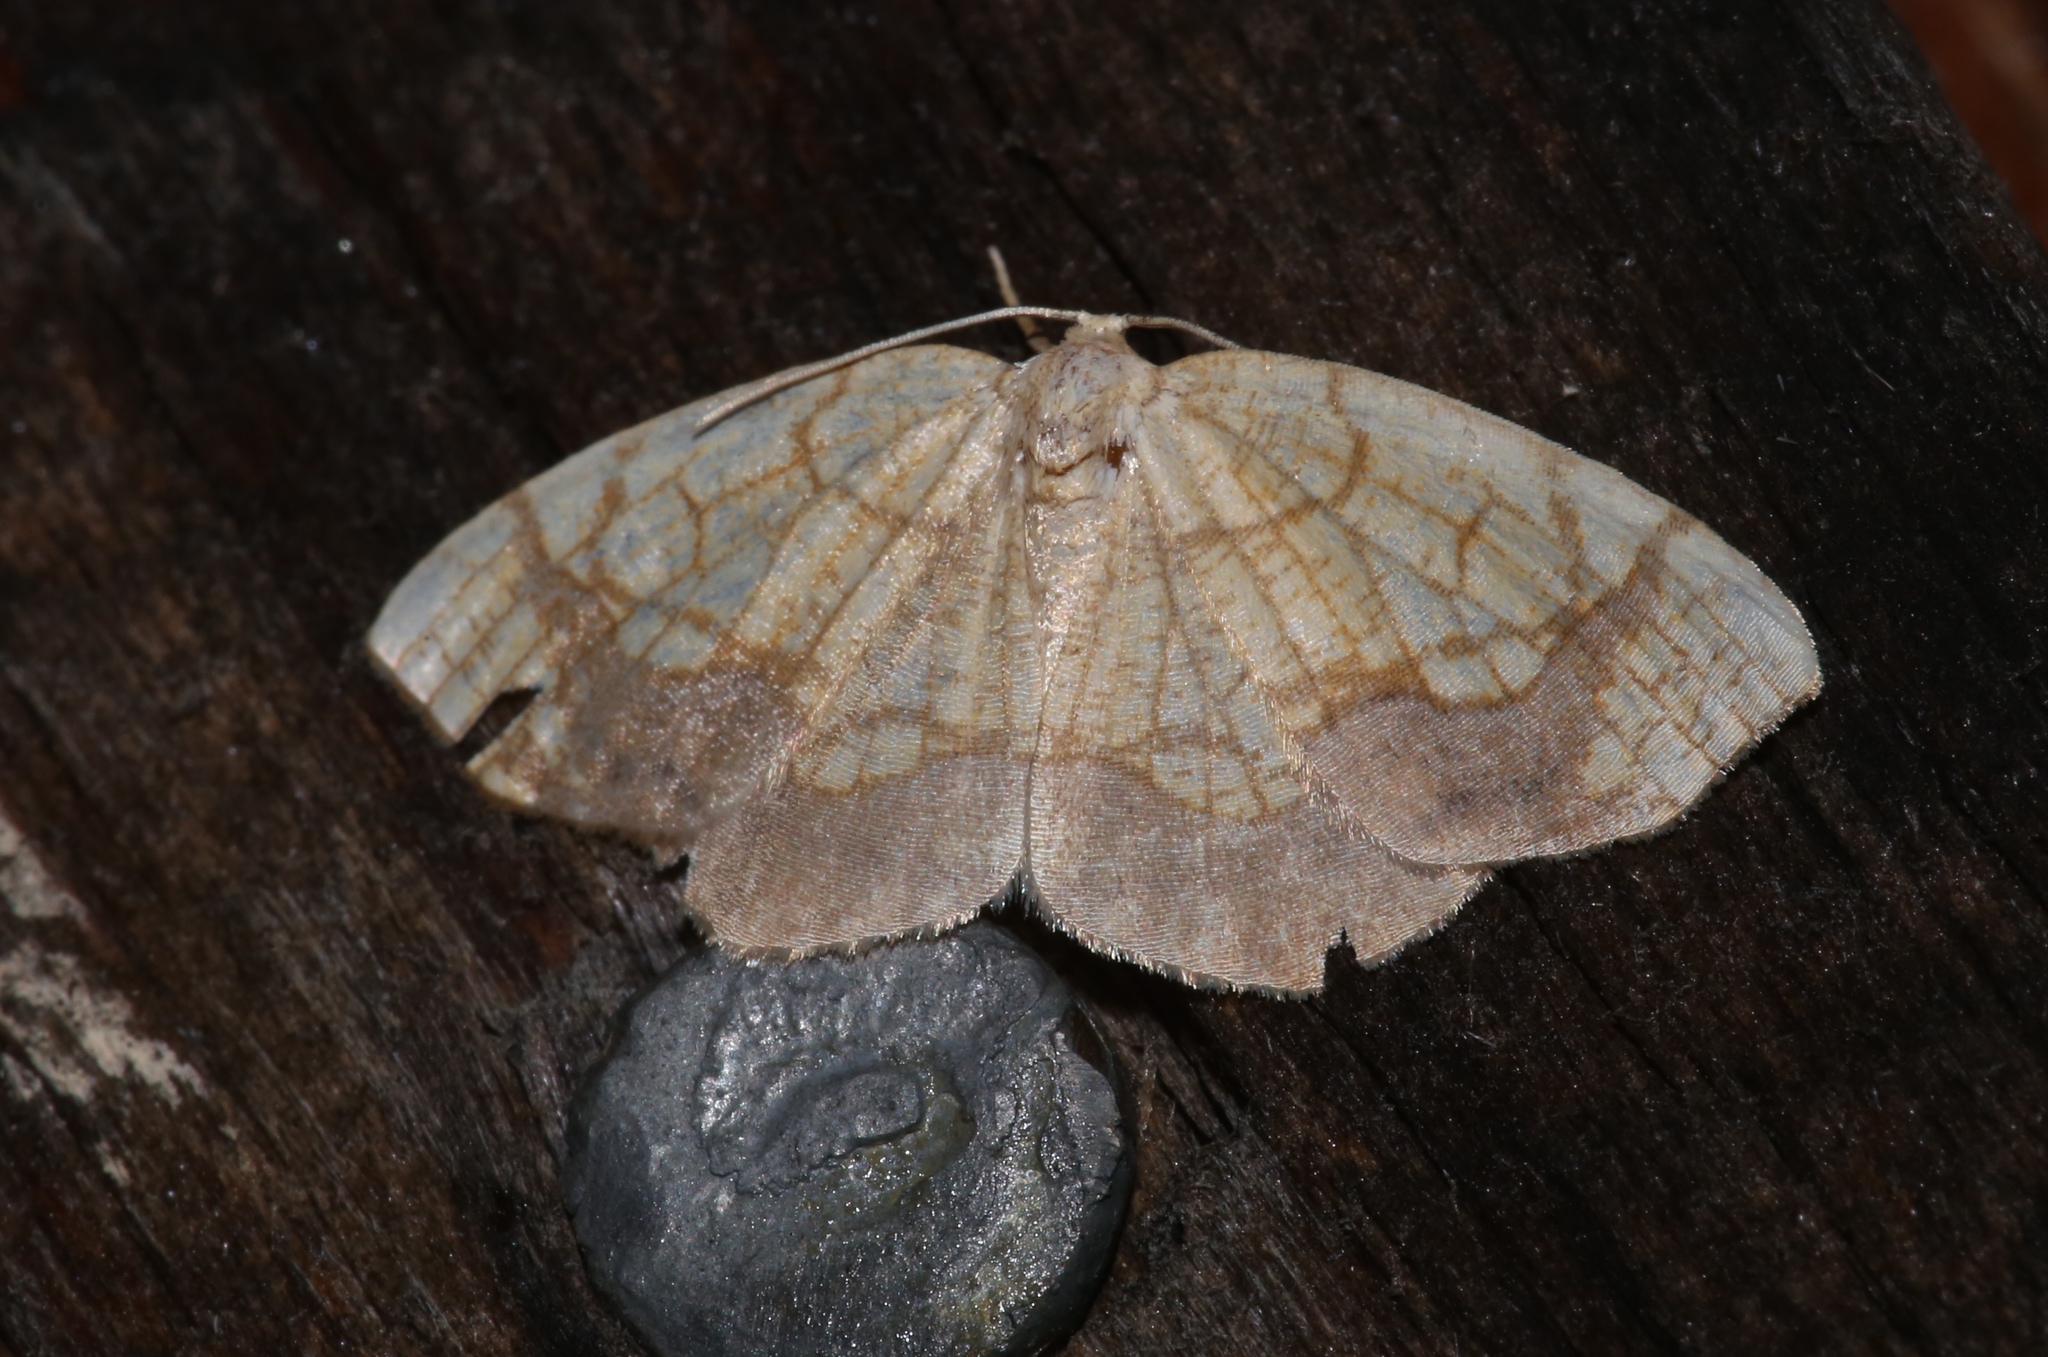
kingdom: Animalia
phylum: Arthropoda
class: Insecta
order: Lepidoptera
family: Geometridae
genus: Nematocampa
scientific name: Nematocampa resistaria
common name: Horned spanworm moth
